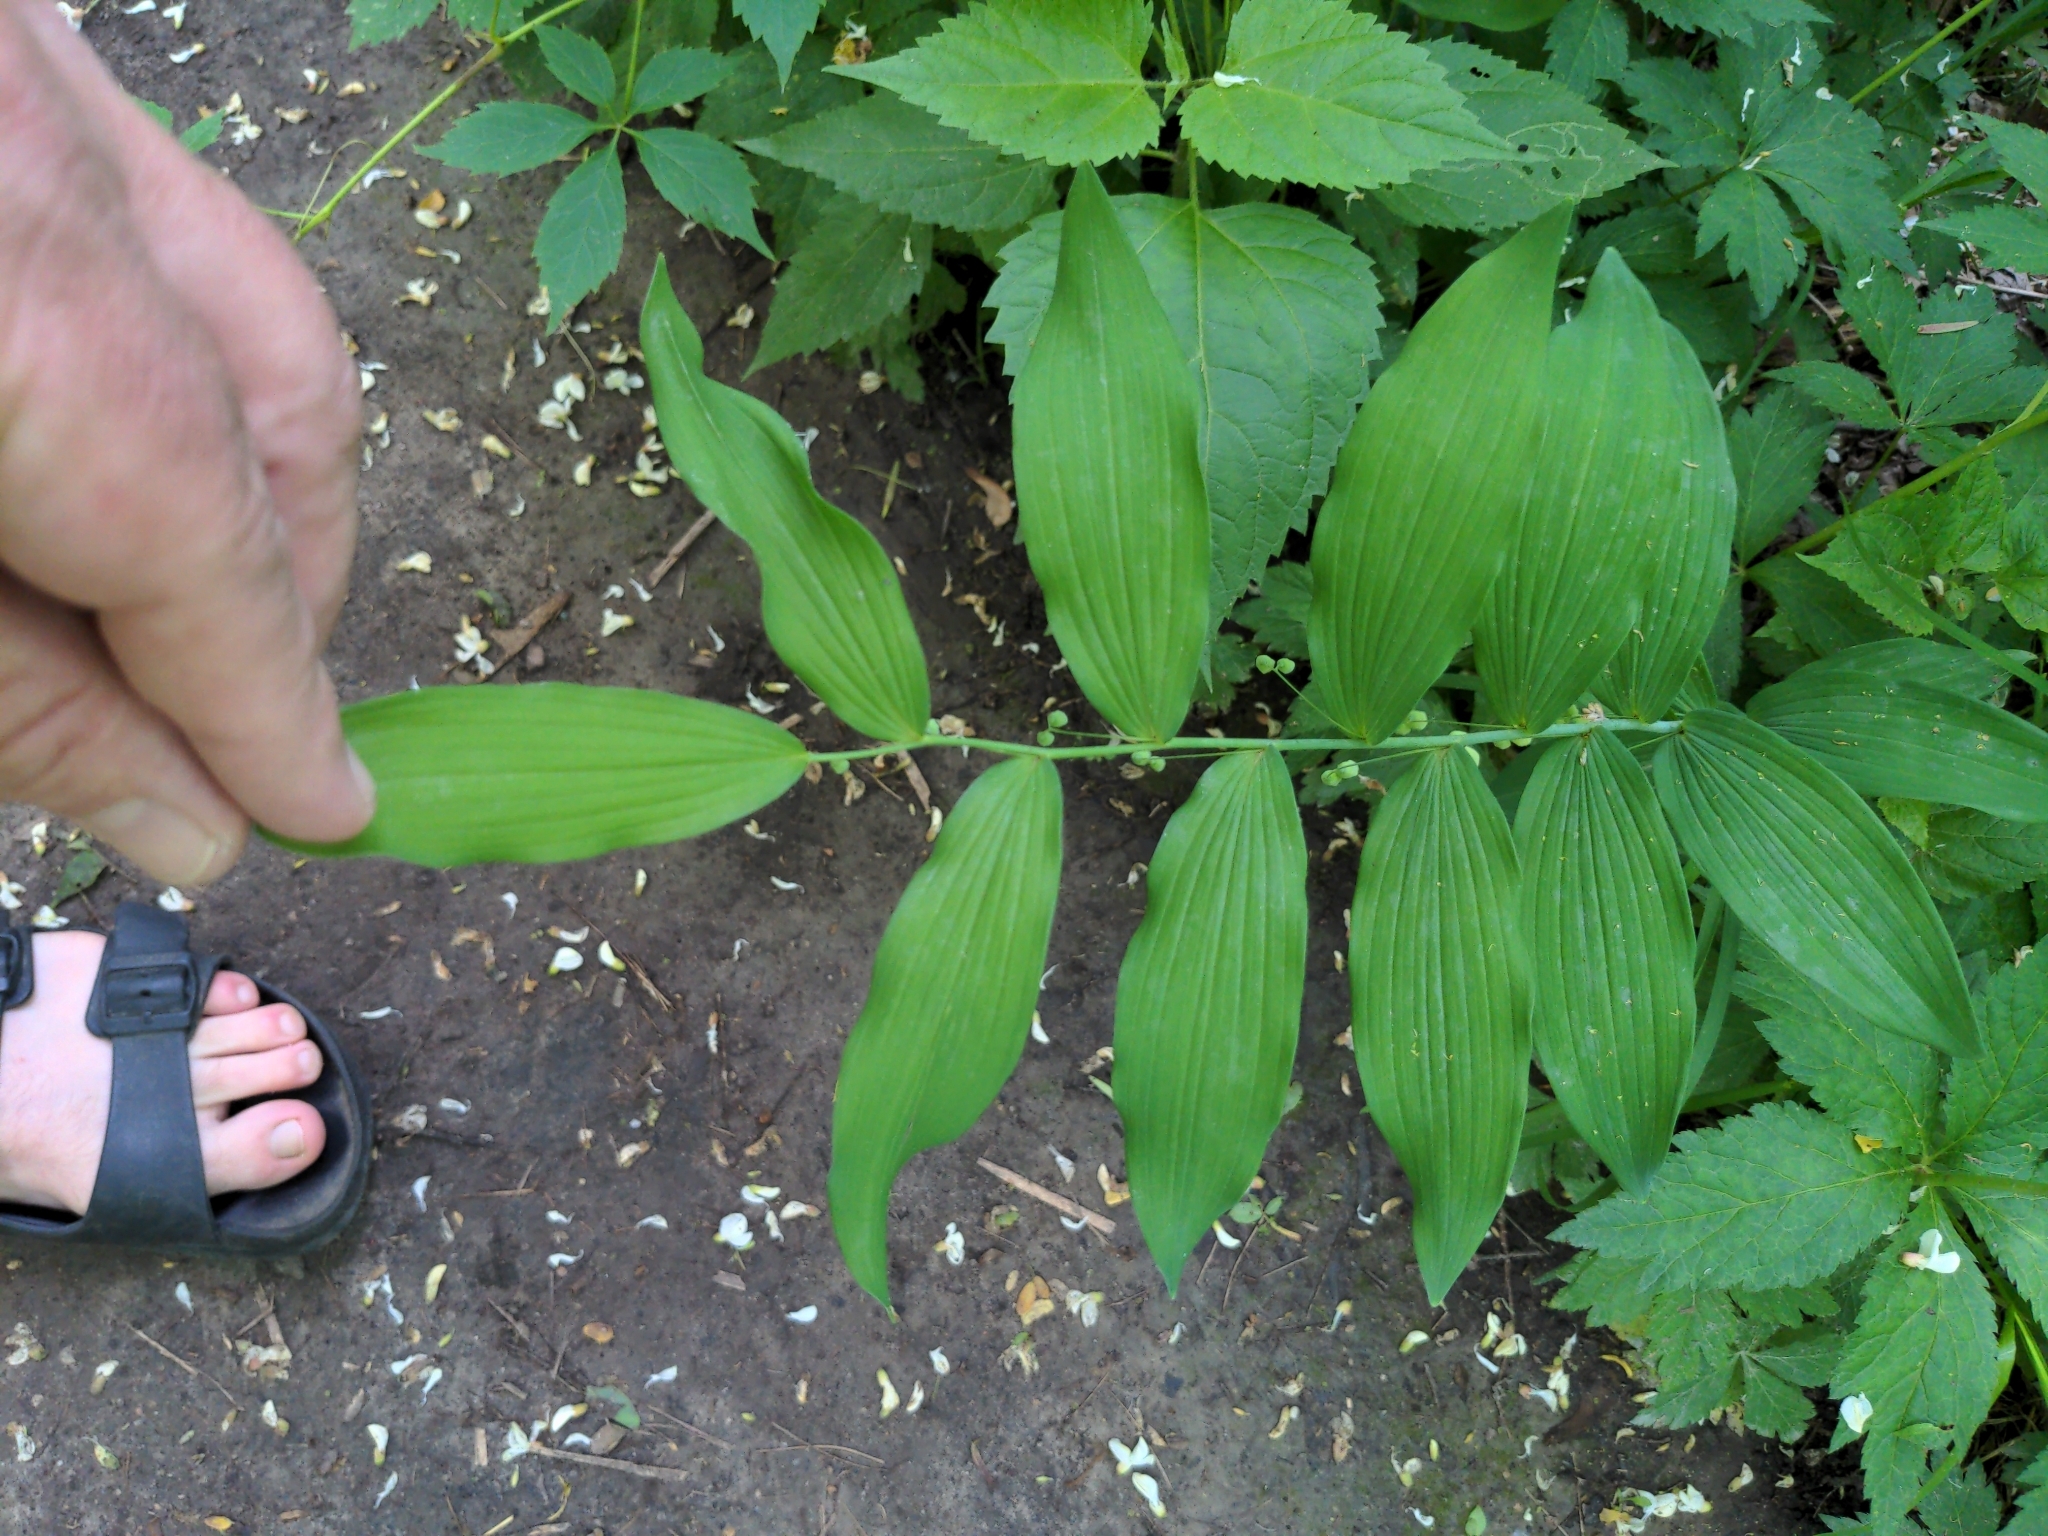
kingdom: Plantae
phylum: Tracheophyta
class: Liliopsida
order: Asparagales
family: Asparagaceae
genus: Polygonatum
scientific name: Polygonatum biflorum
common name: American solomon's-seal
